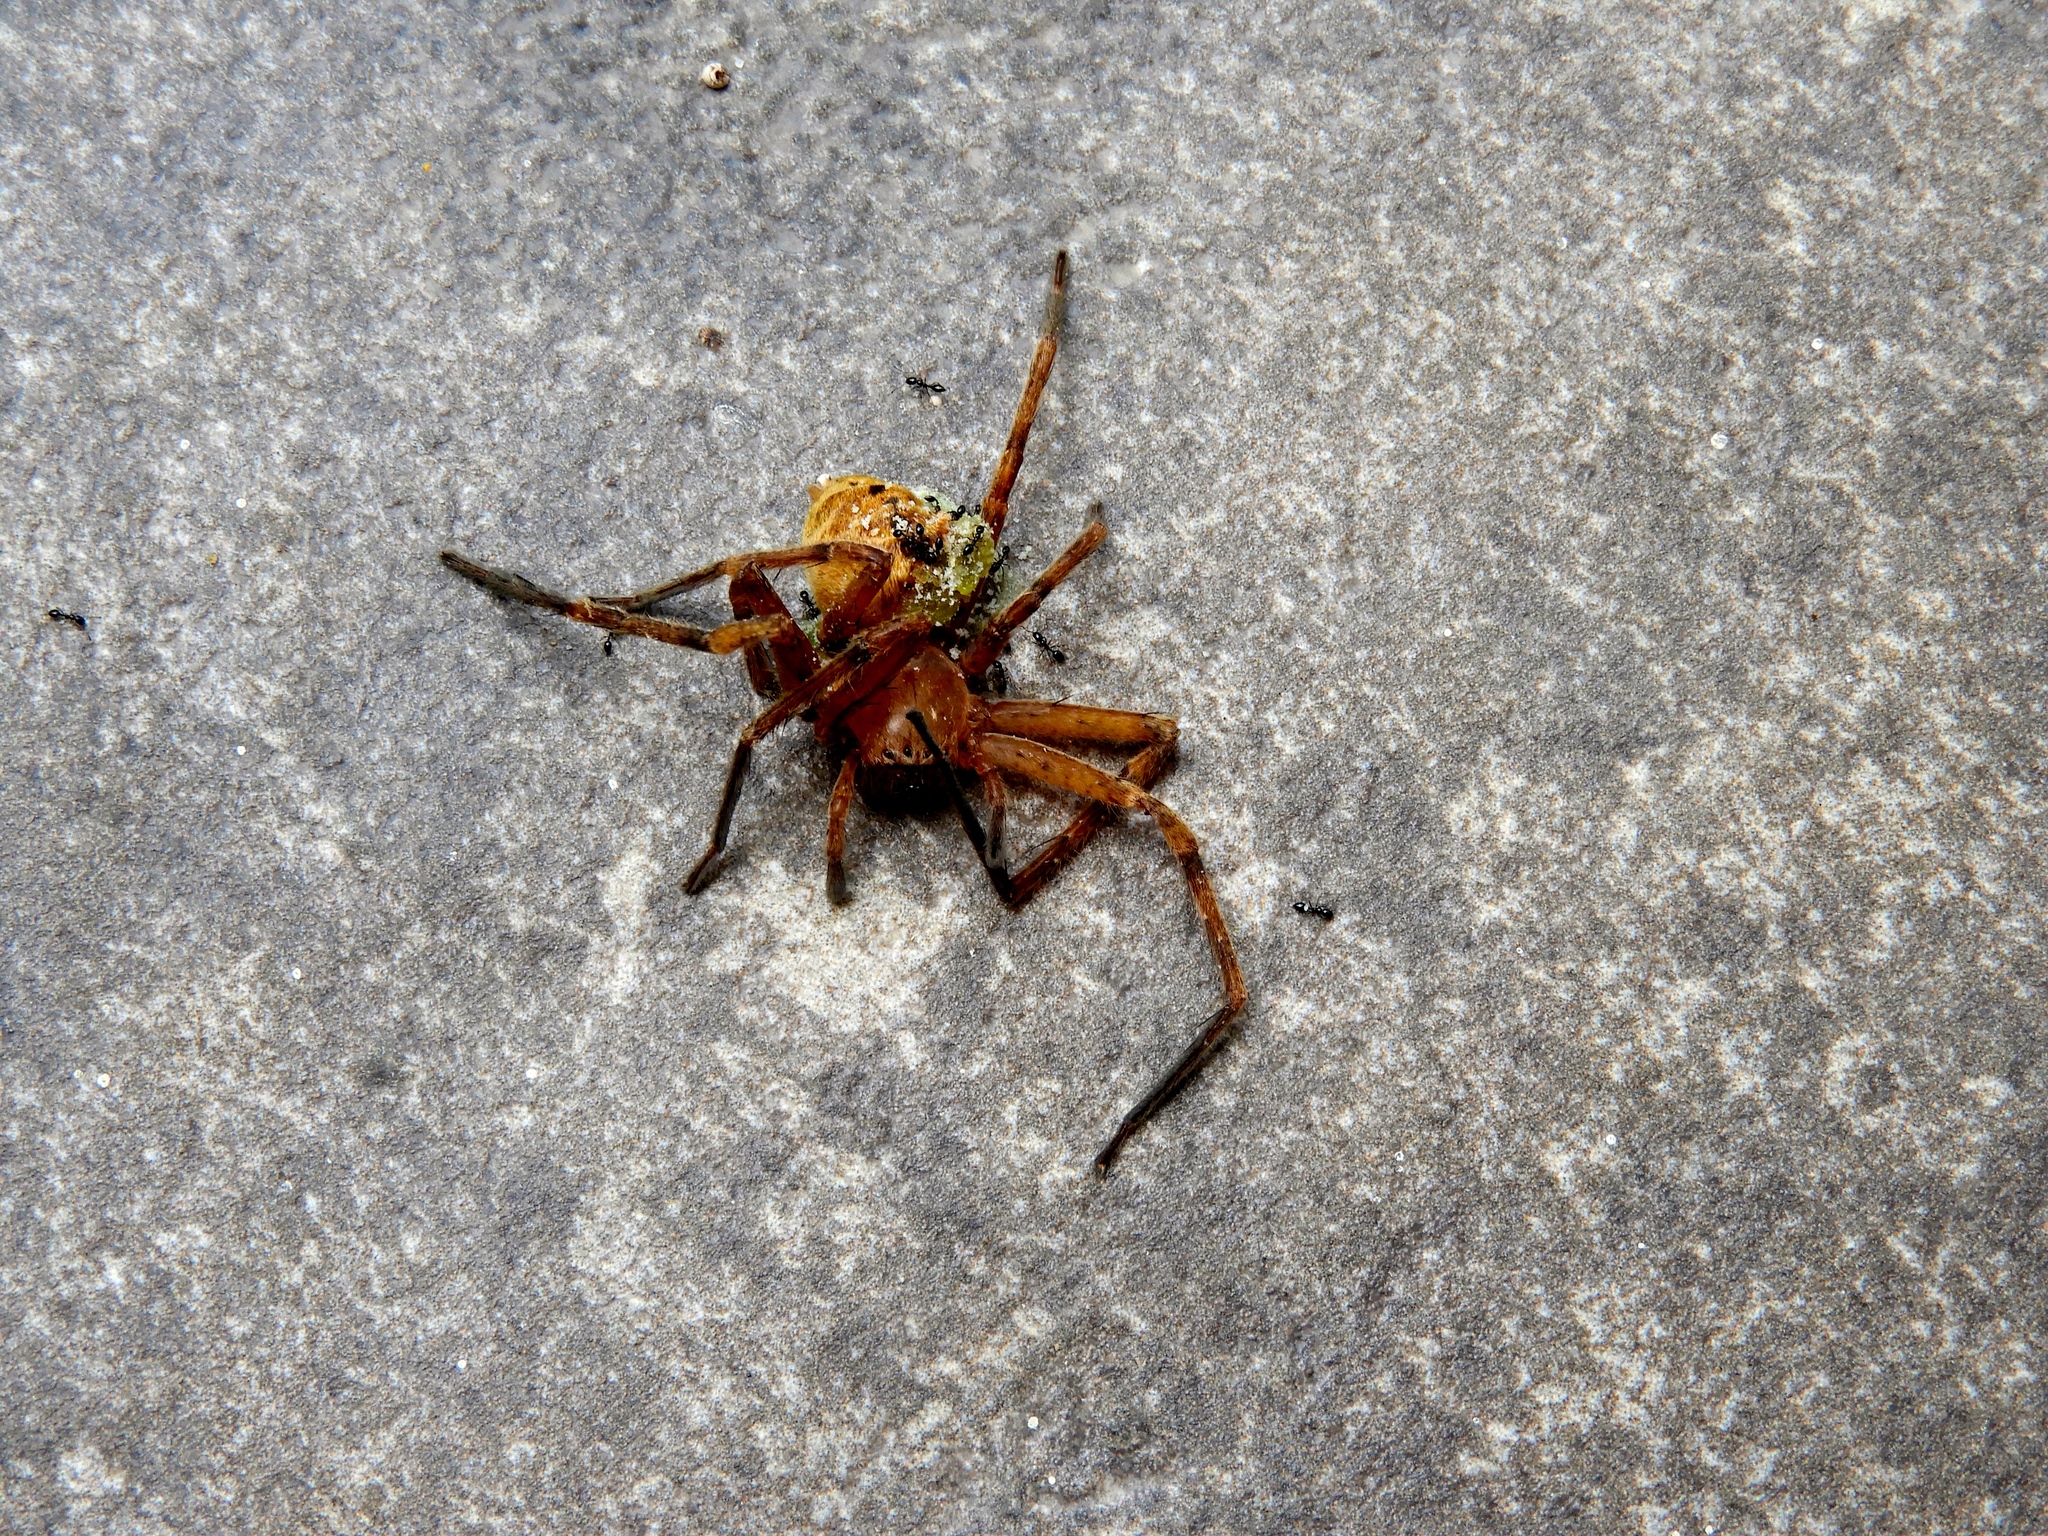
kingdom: Animalia
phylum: Arthropoda
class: Arachnida
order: Araneae
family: Sparassidae
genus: Curicaberis
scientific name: Curicaberis culiacan
